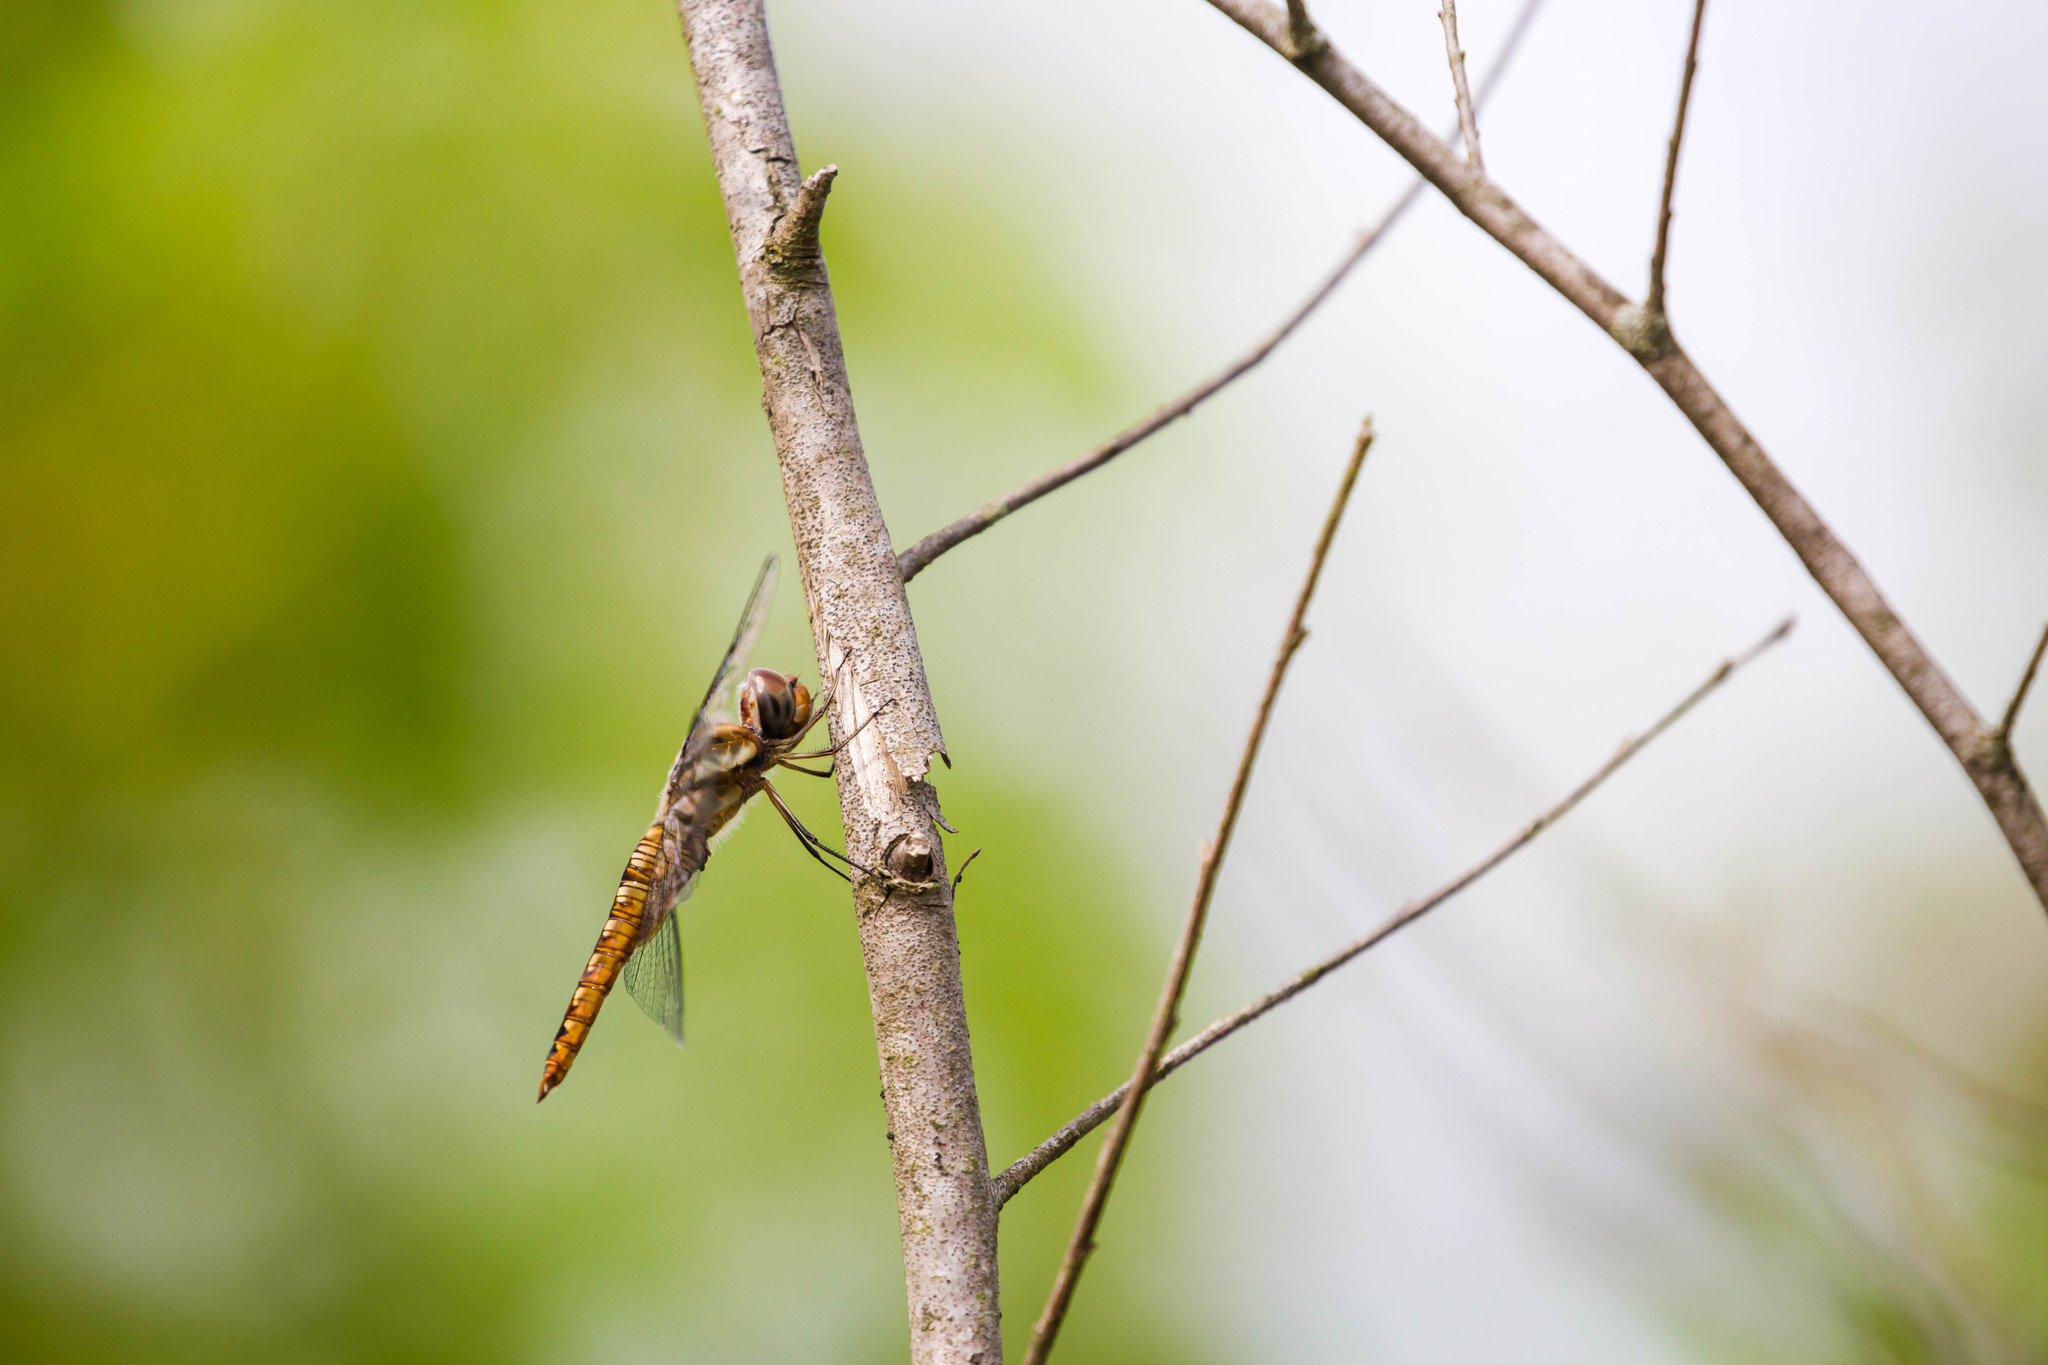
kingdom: Animalia
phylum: Arthropoda
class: Insecta
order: Odonata
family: Libellulidae
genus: Pantala
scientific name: Pantala hymenaea
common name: Spot-winged glider
